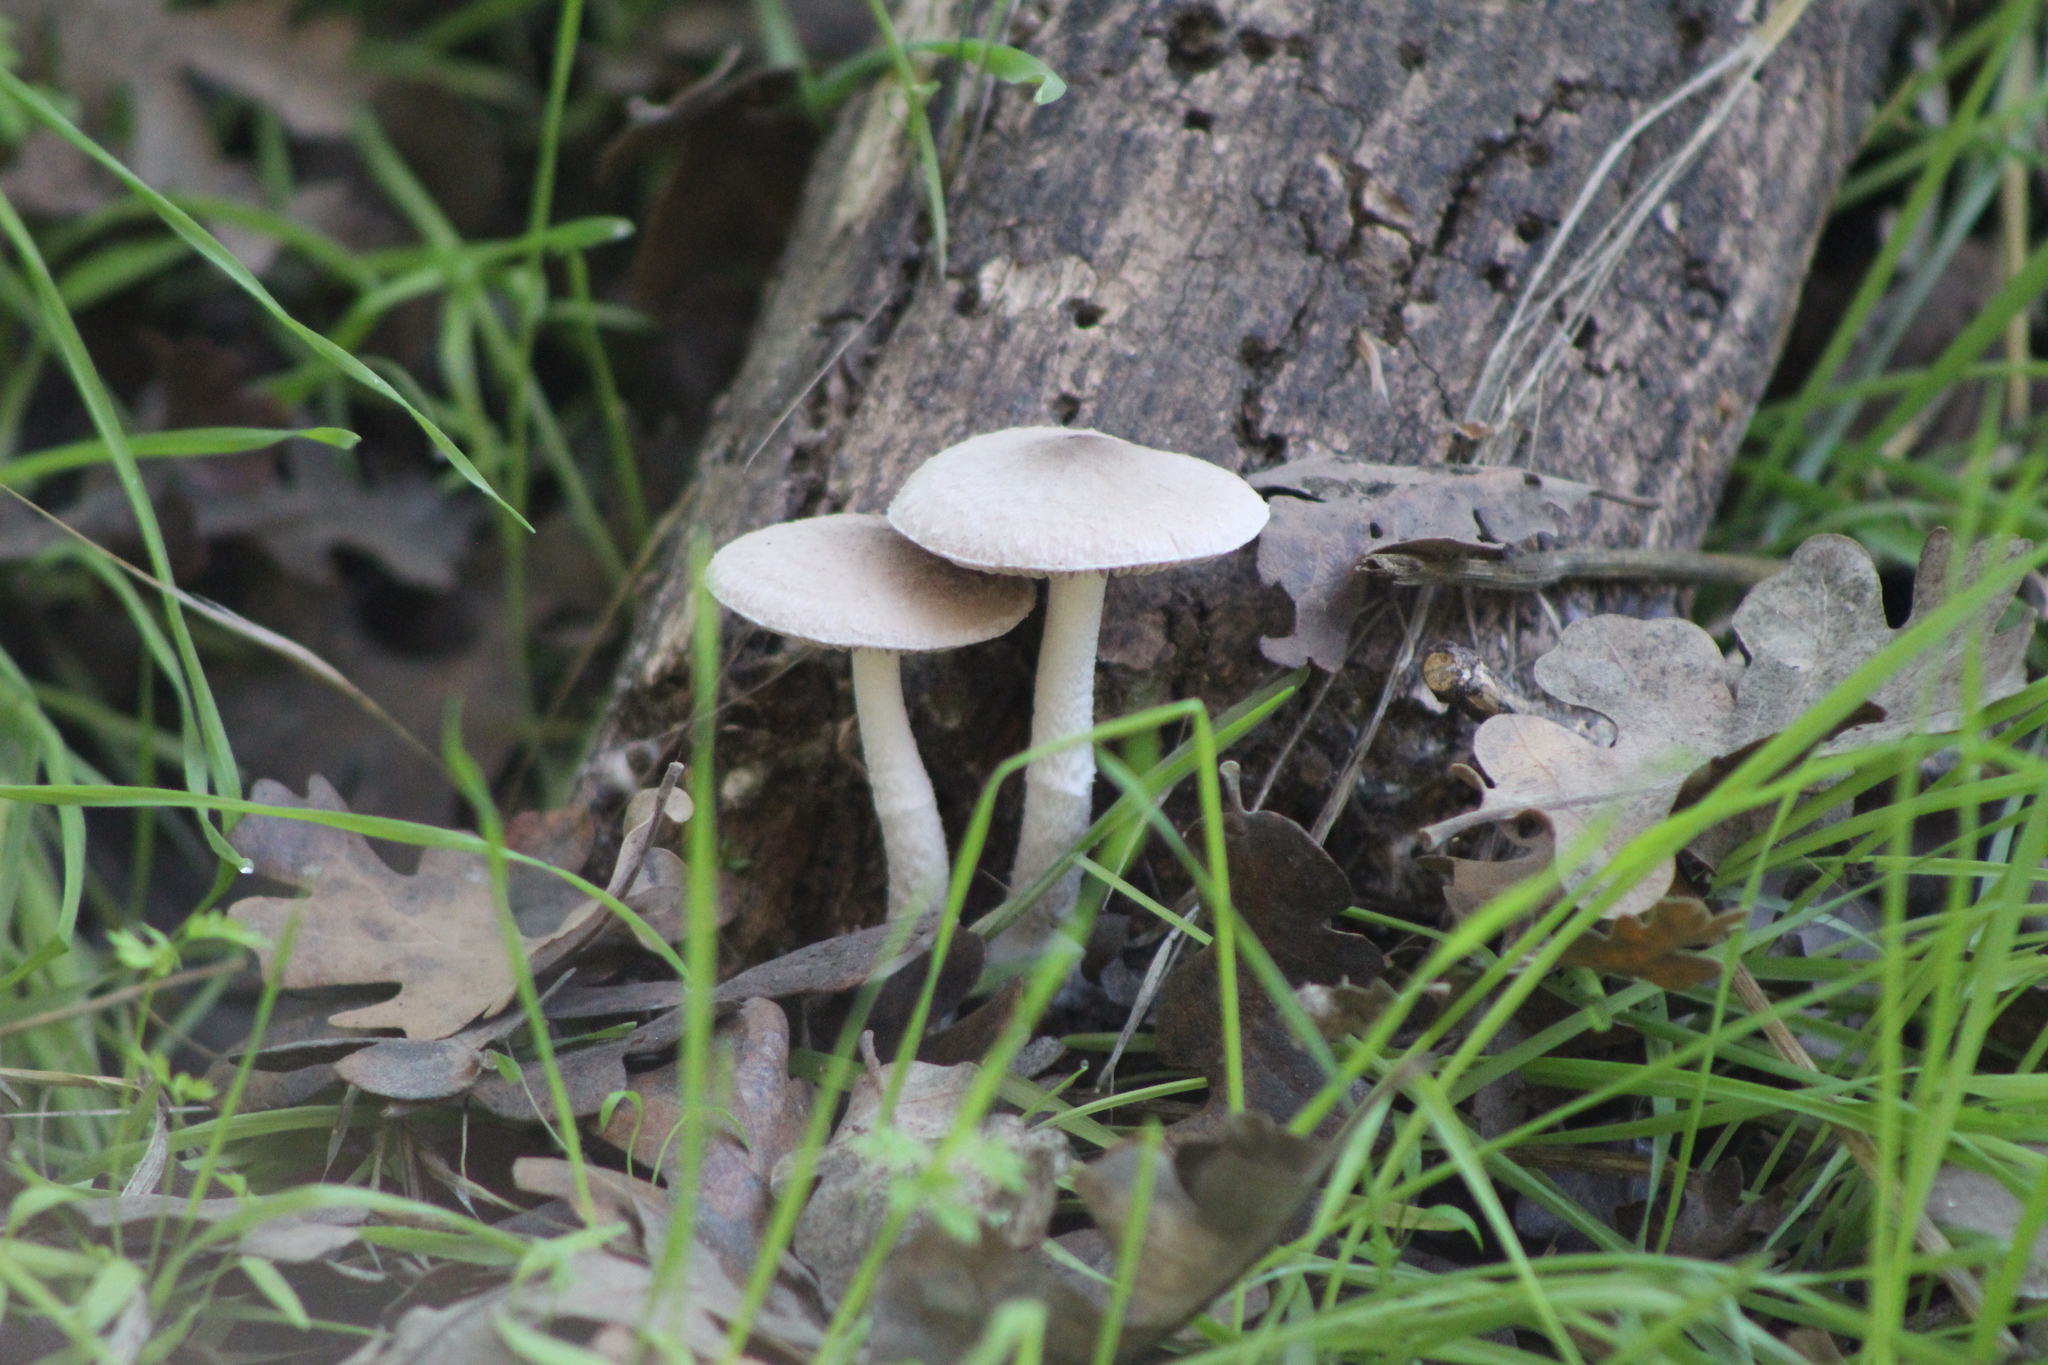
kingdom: Fungi
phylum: Basidiomycota
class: Agaricomycetes
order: Agaricales
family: Psathyrellaceae
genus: Psathyrella
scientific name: Psathyrella uliginicola
